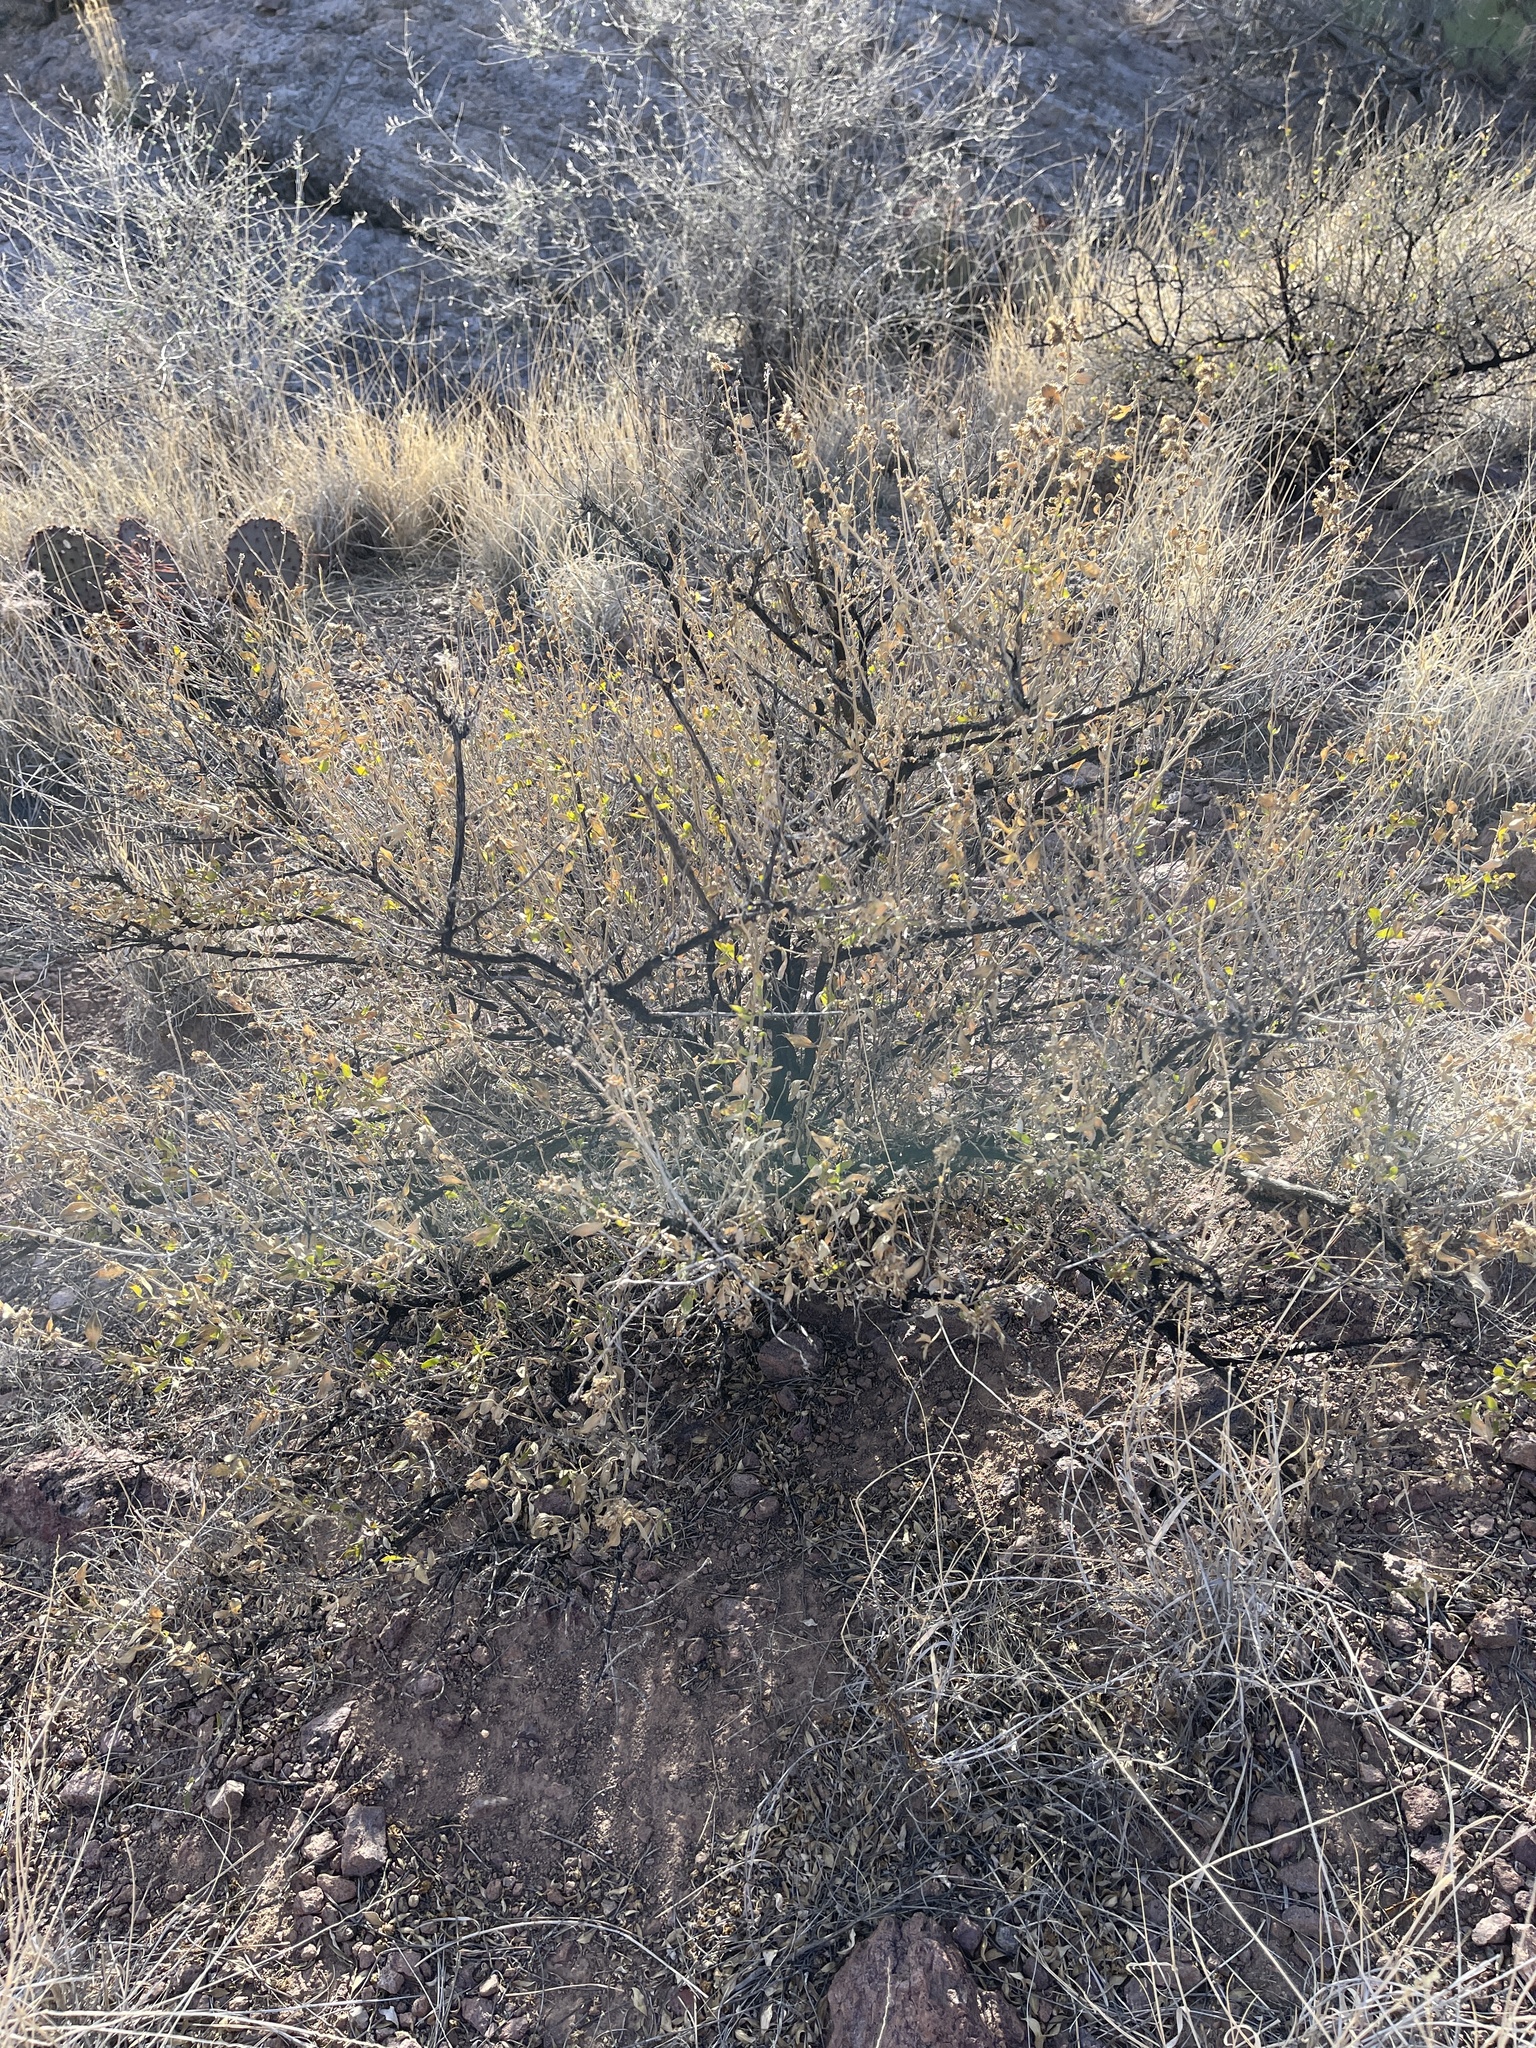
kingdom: Plantae
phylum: Tracheophyta
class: Magnoliopsida
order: Asterales
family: Asteraceae
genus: Flourensia
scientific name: Flourensia cernua
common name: Varnishbush
